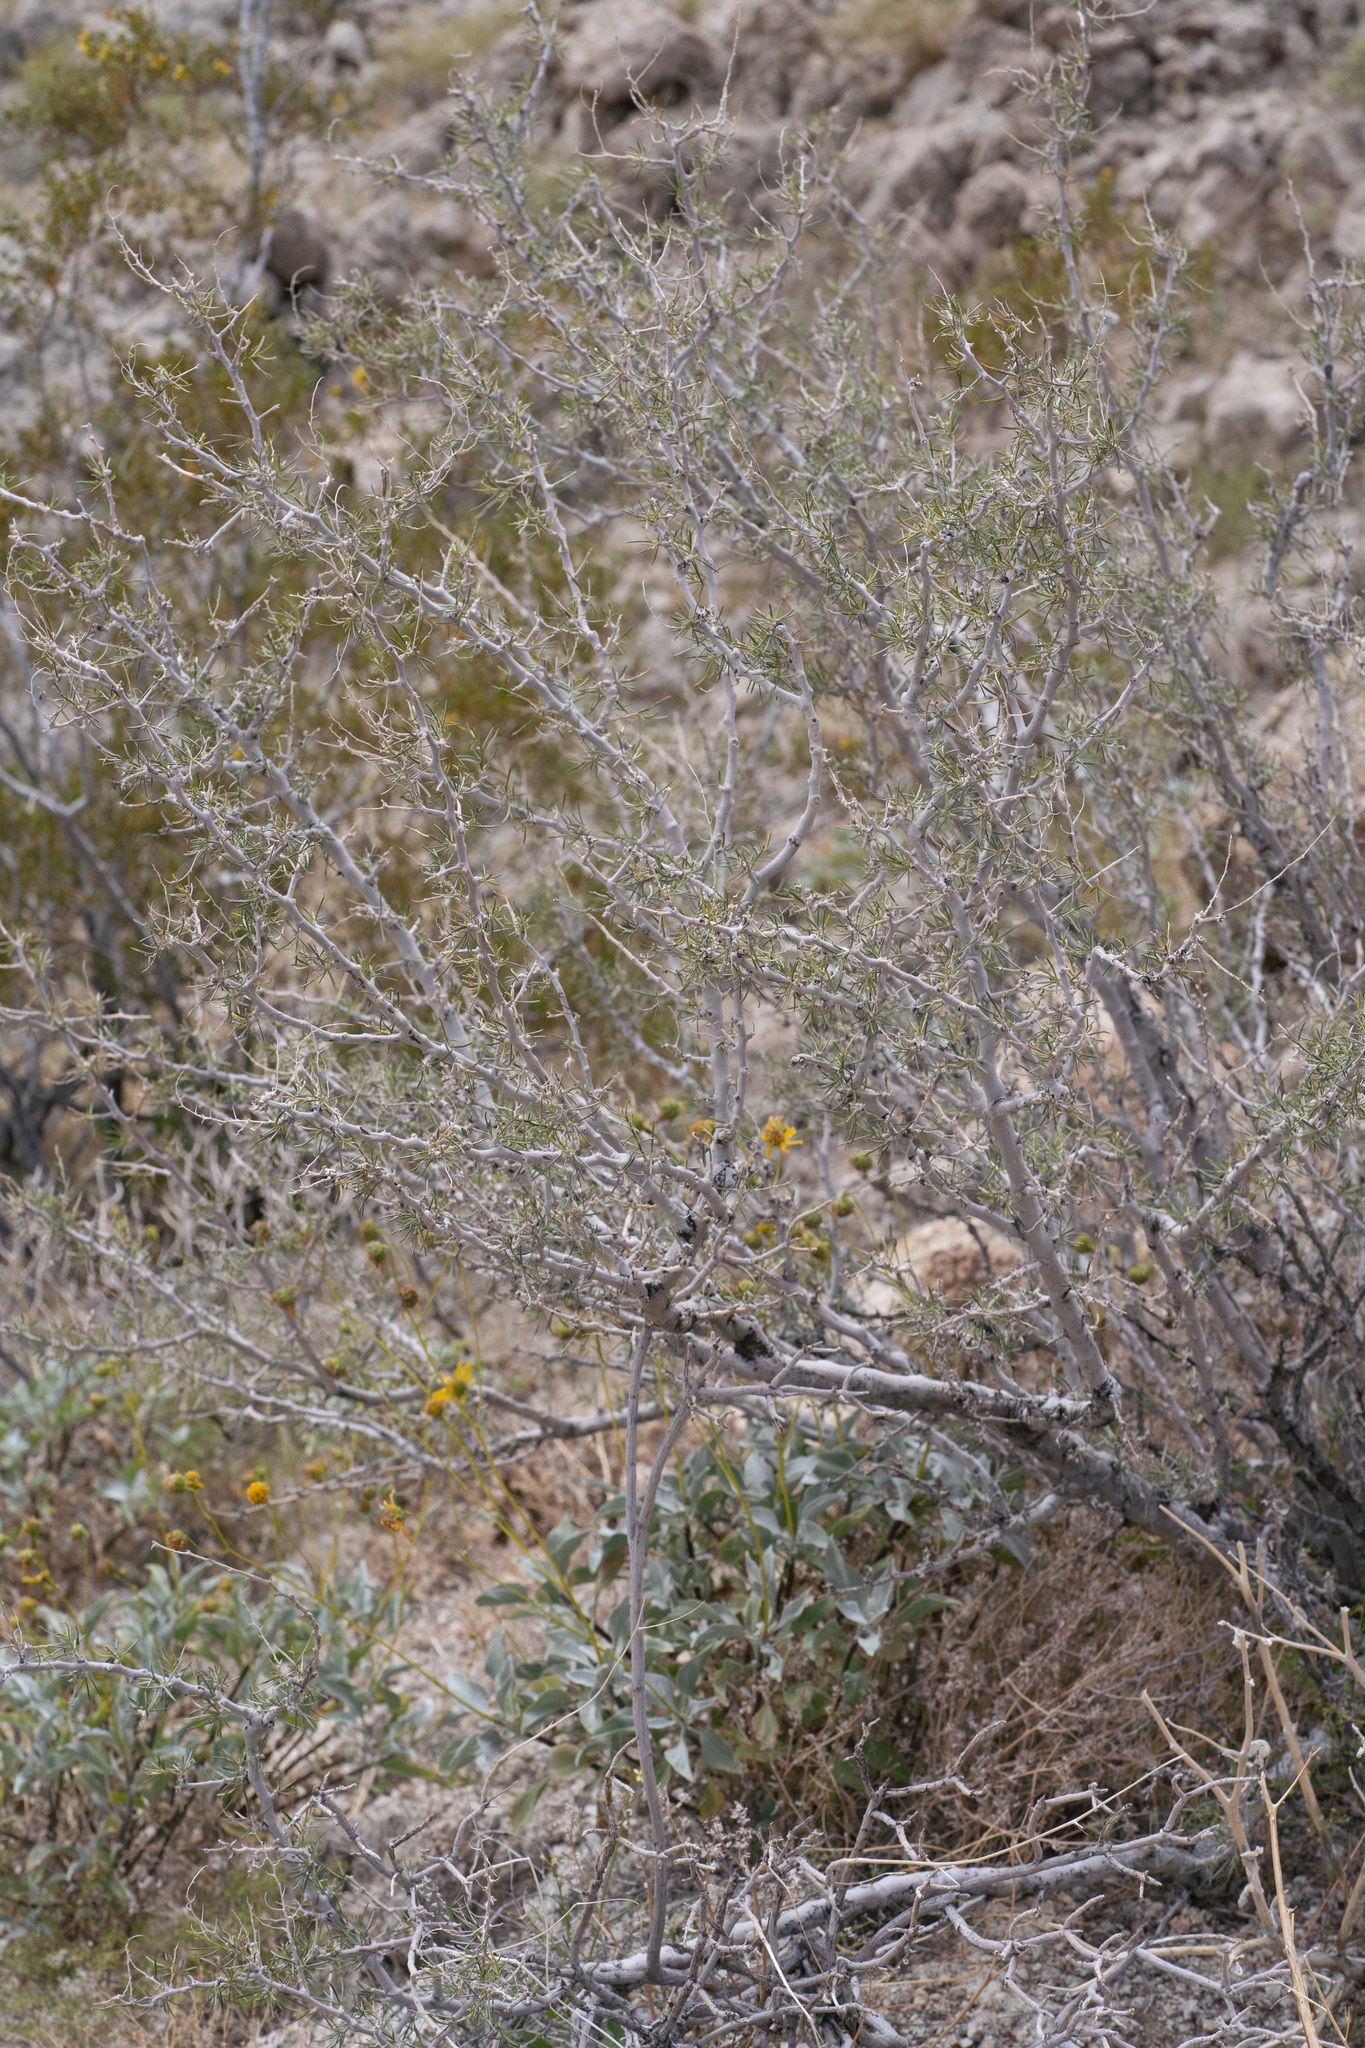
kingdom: Plantae
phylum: Tracheophyta
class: Magnoliopsida
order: Fabales
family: Fabaceae
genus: Psorothamnus
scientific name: Psorothamnus schottii
